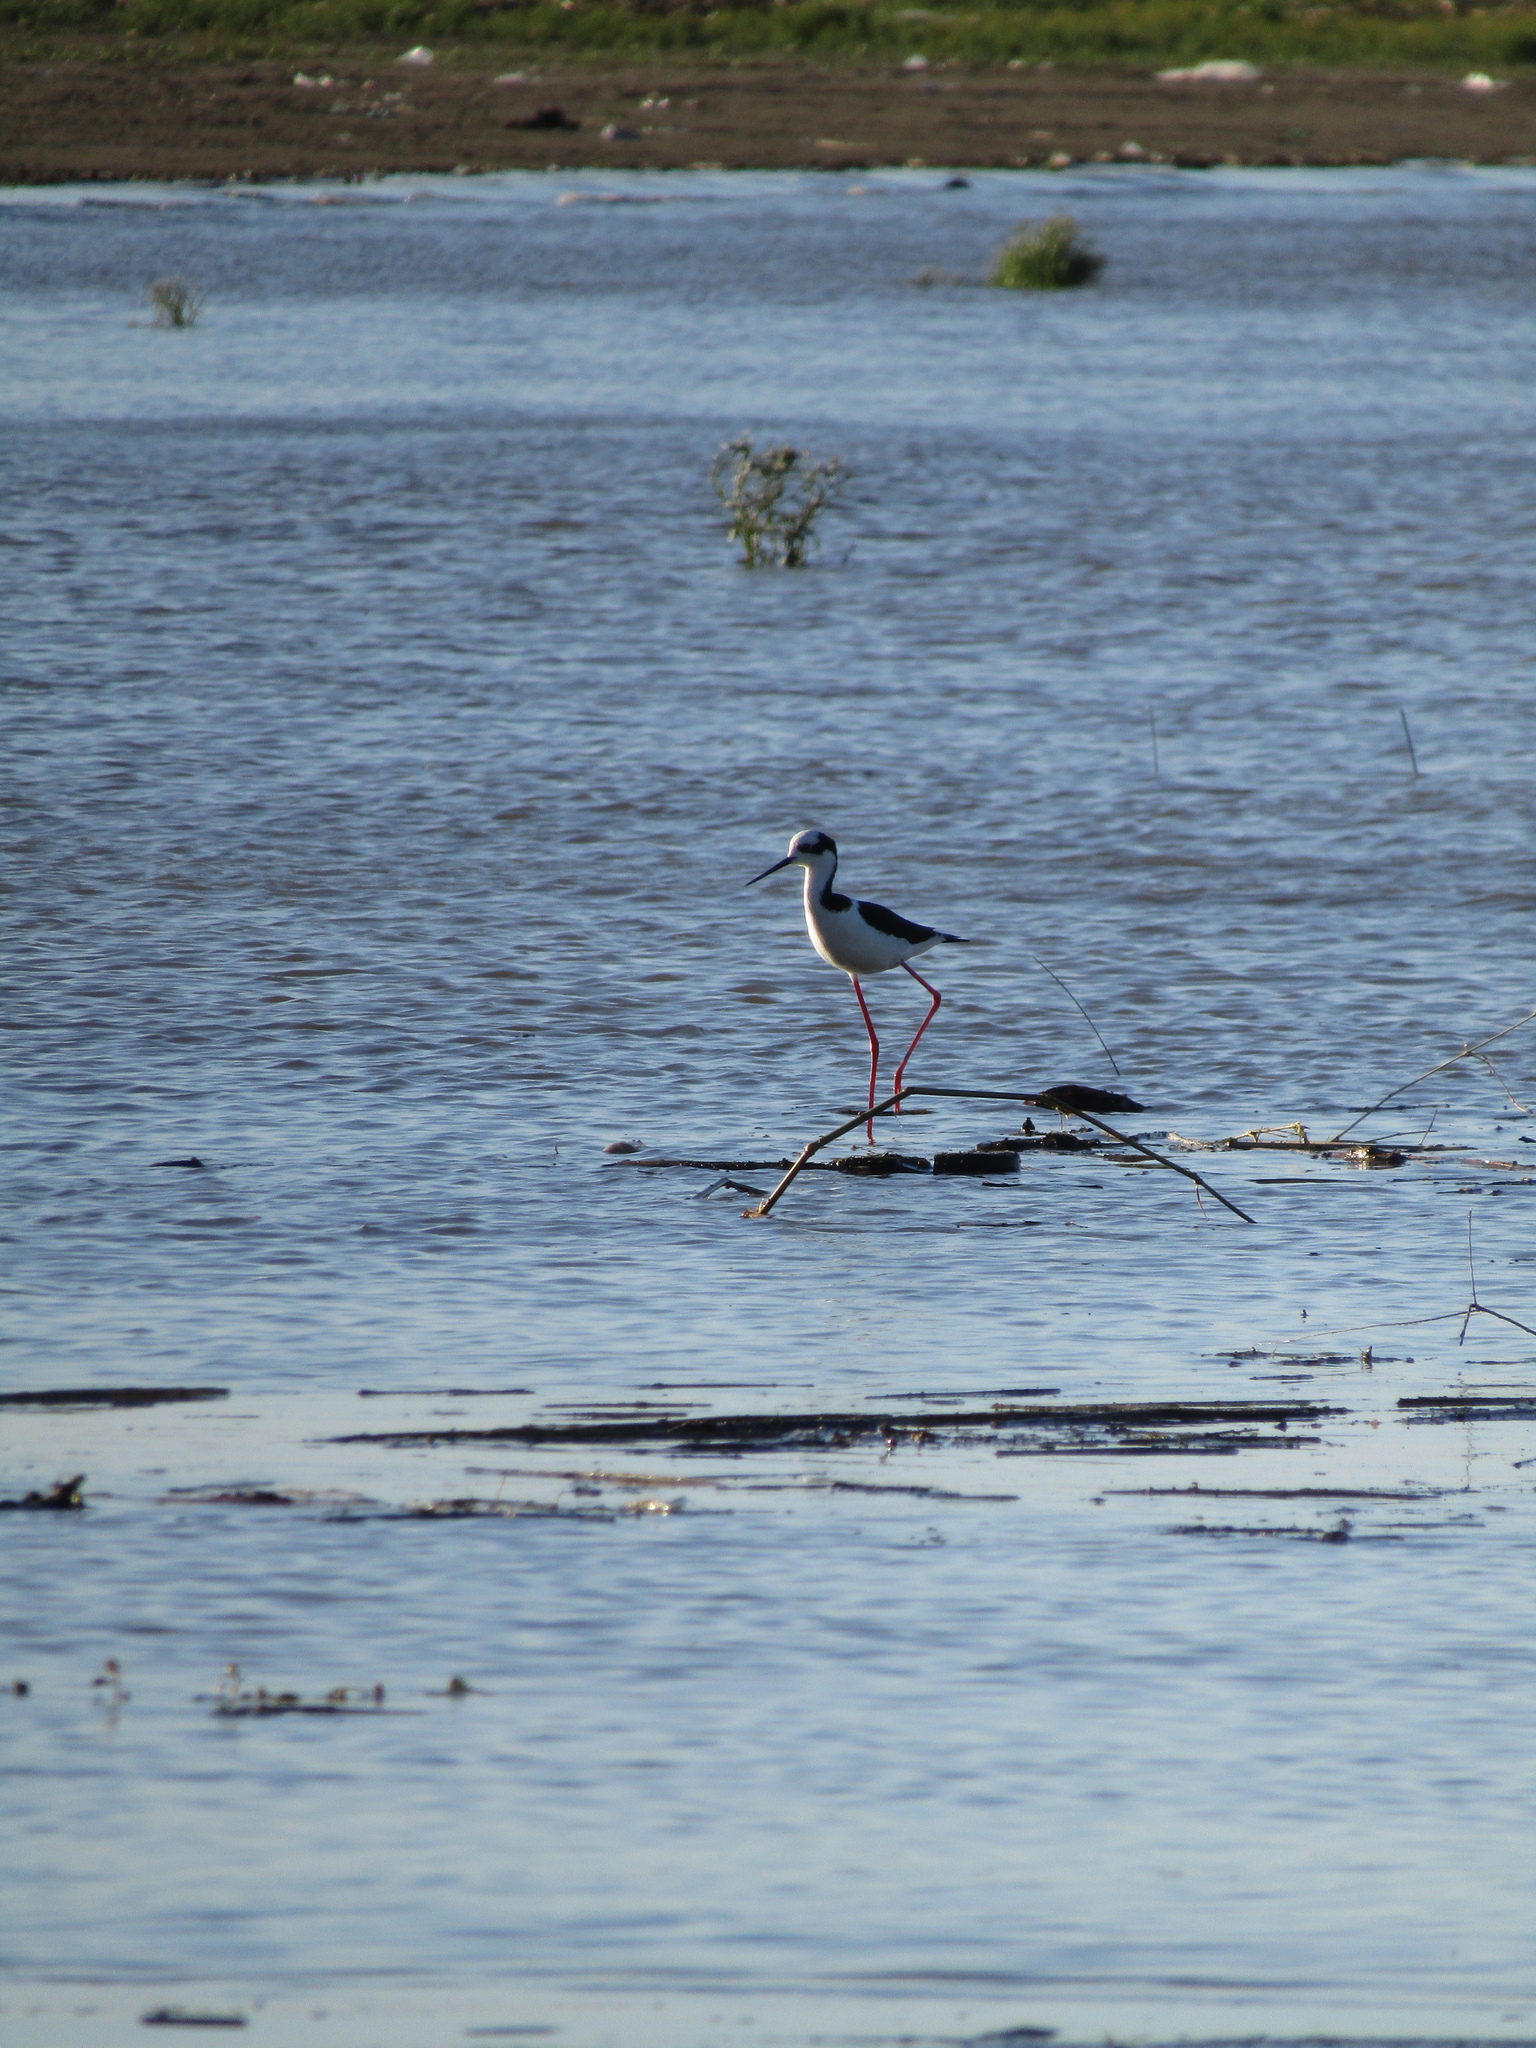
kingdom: Animalia
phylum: Chordata
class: Aves
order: Charadriiformes
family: Recurvirostridae
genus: Himantopus
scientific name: Himantopus mexicanus
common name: Black-necked stilt
